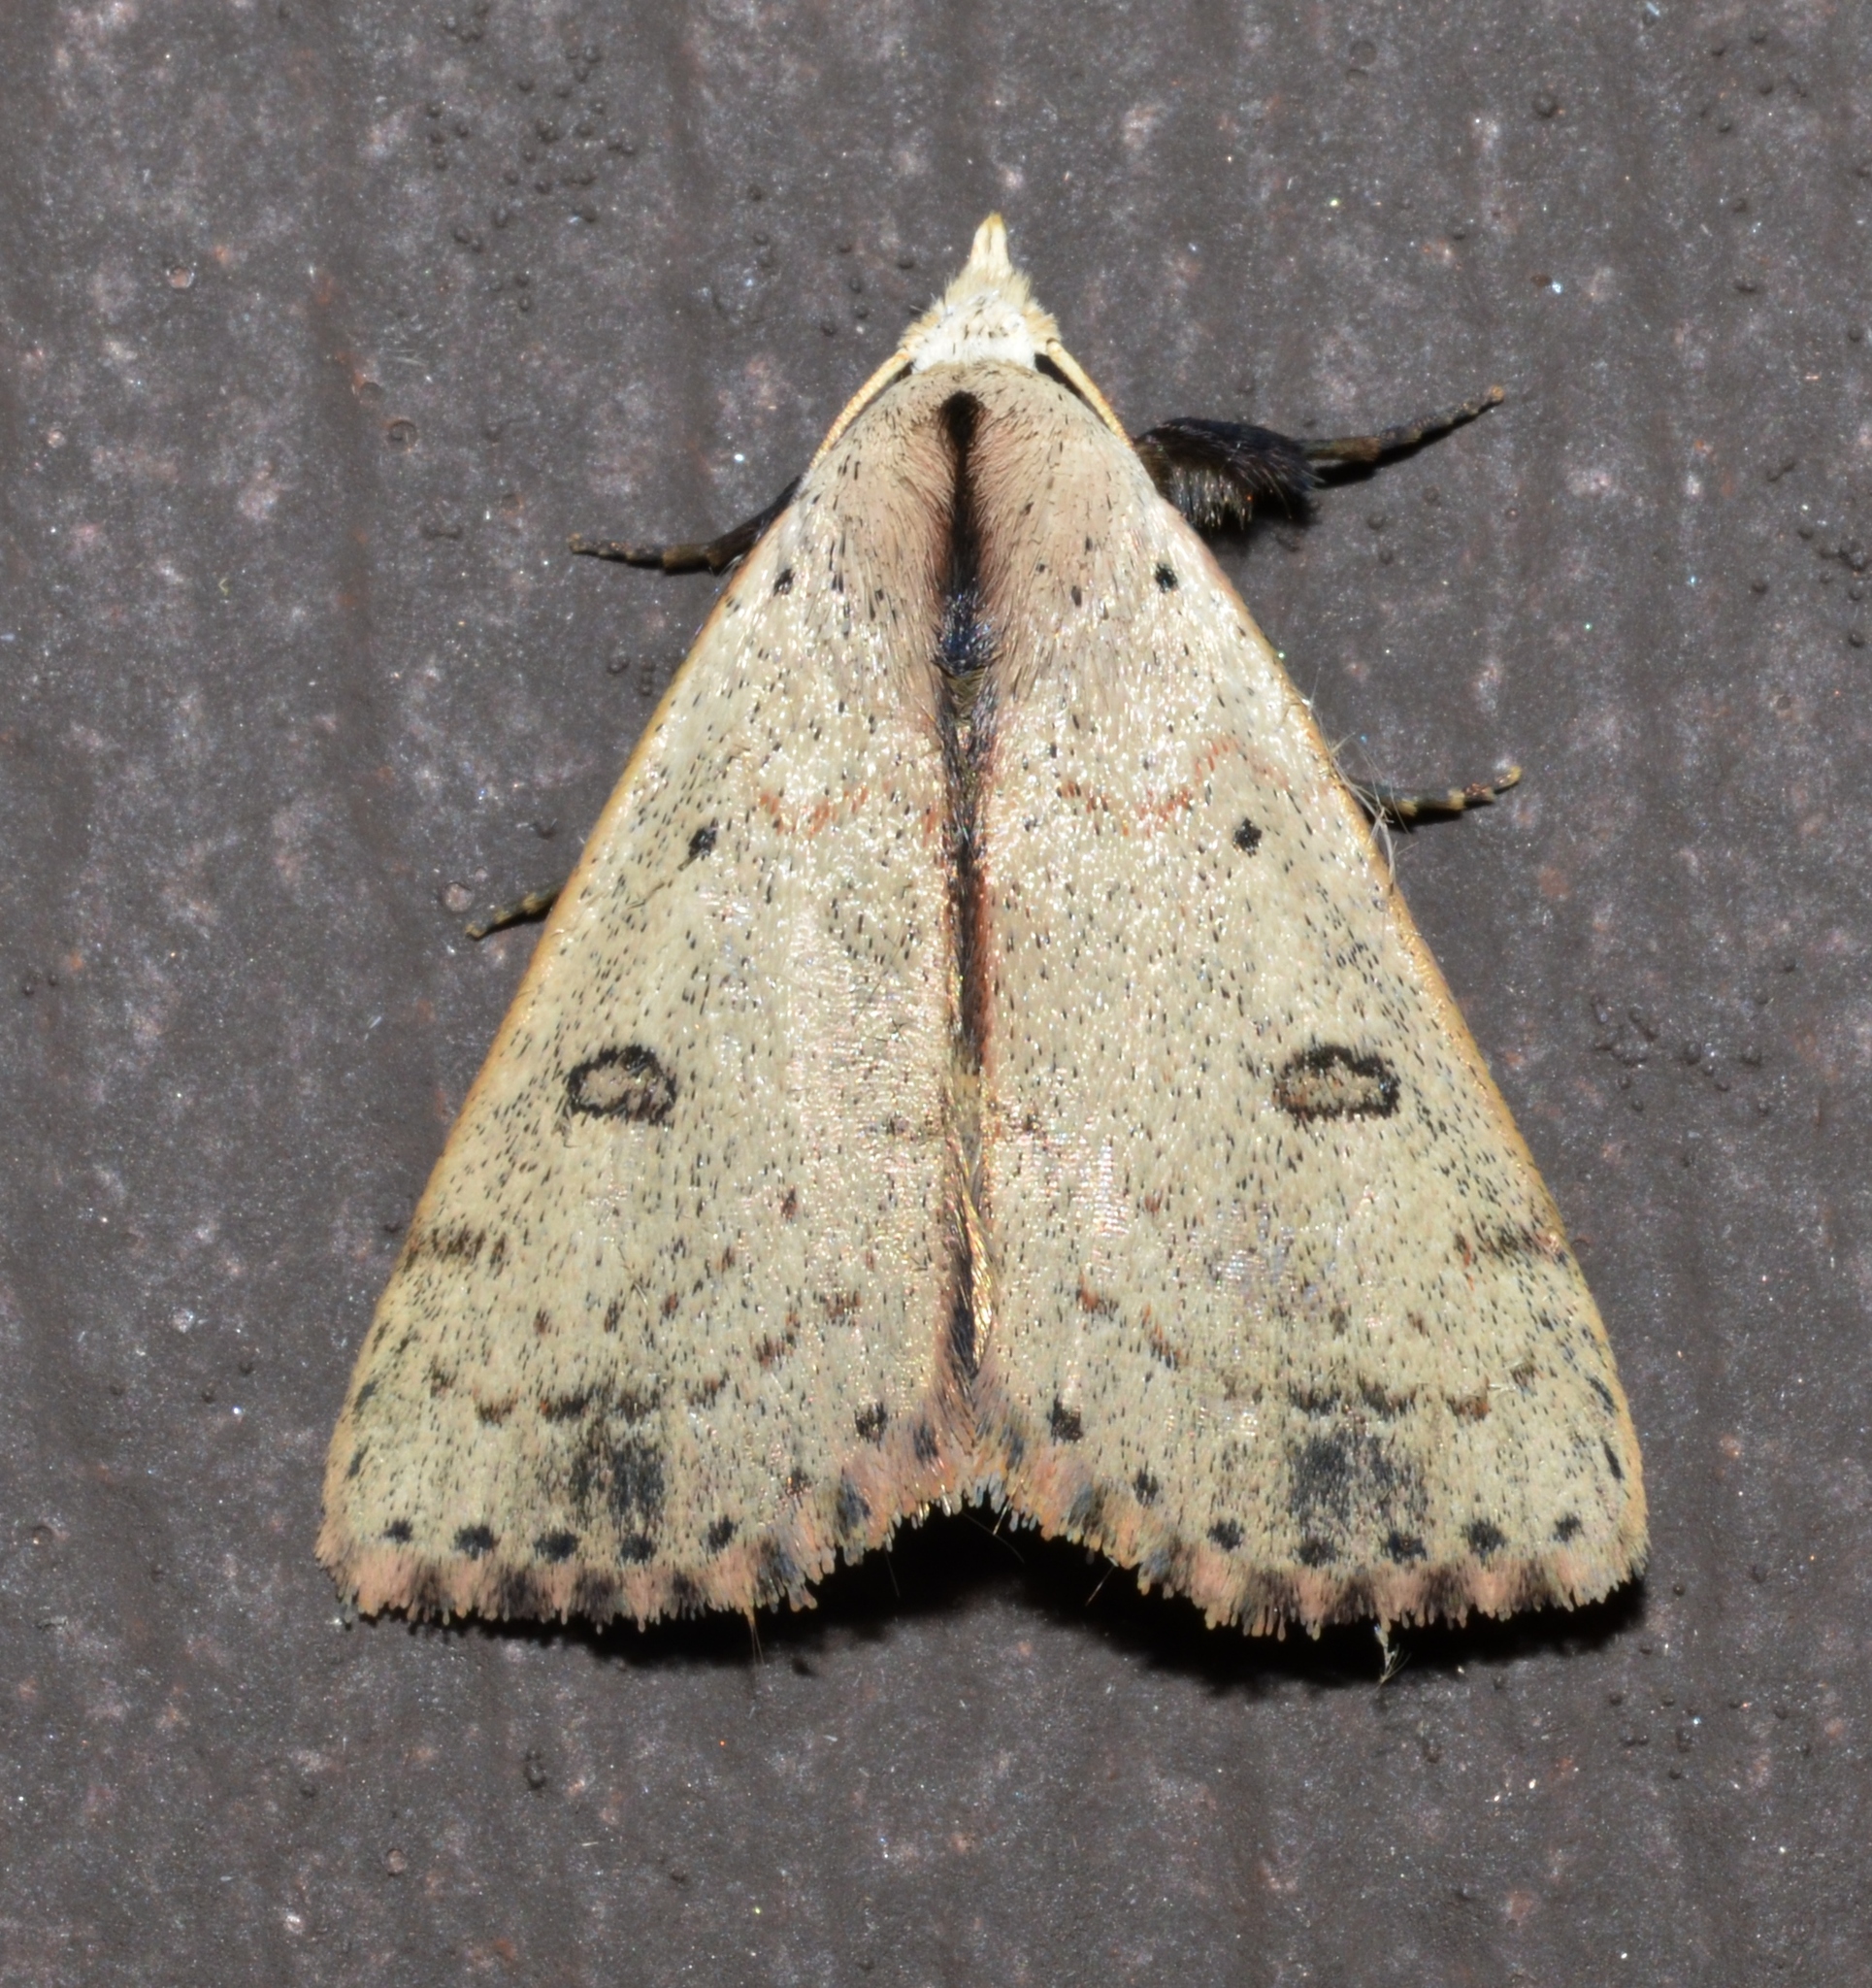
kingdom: Animalia
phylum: Arthropoda
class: Insecta
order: Lepidoptera
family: Erebidae
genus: Scolecocampa
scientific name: Scolecocampa liburna
